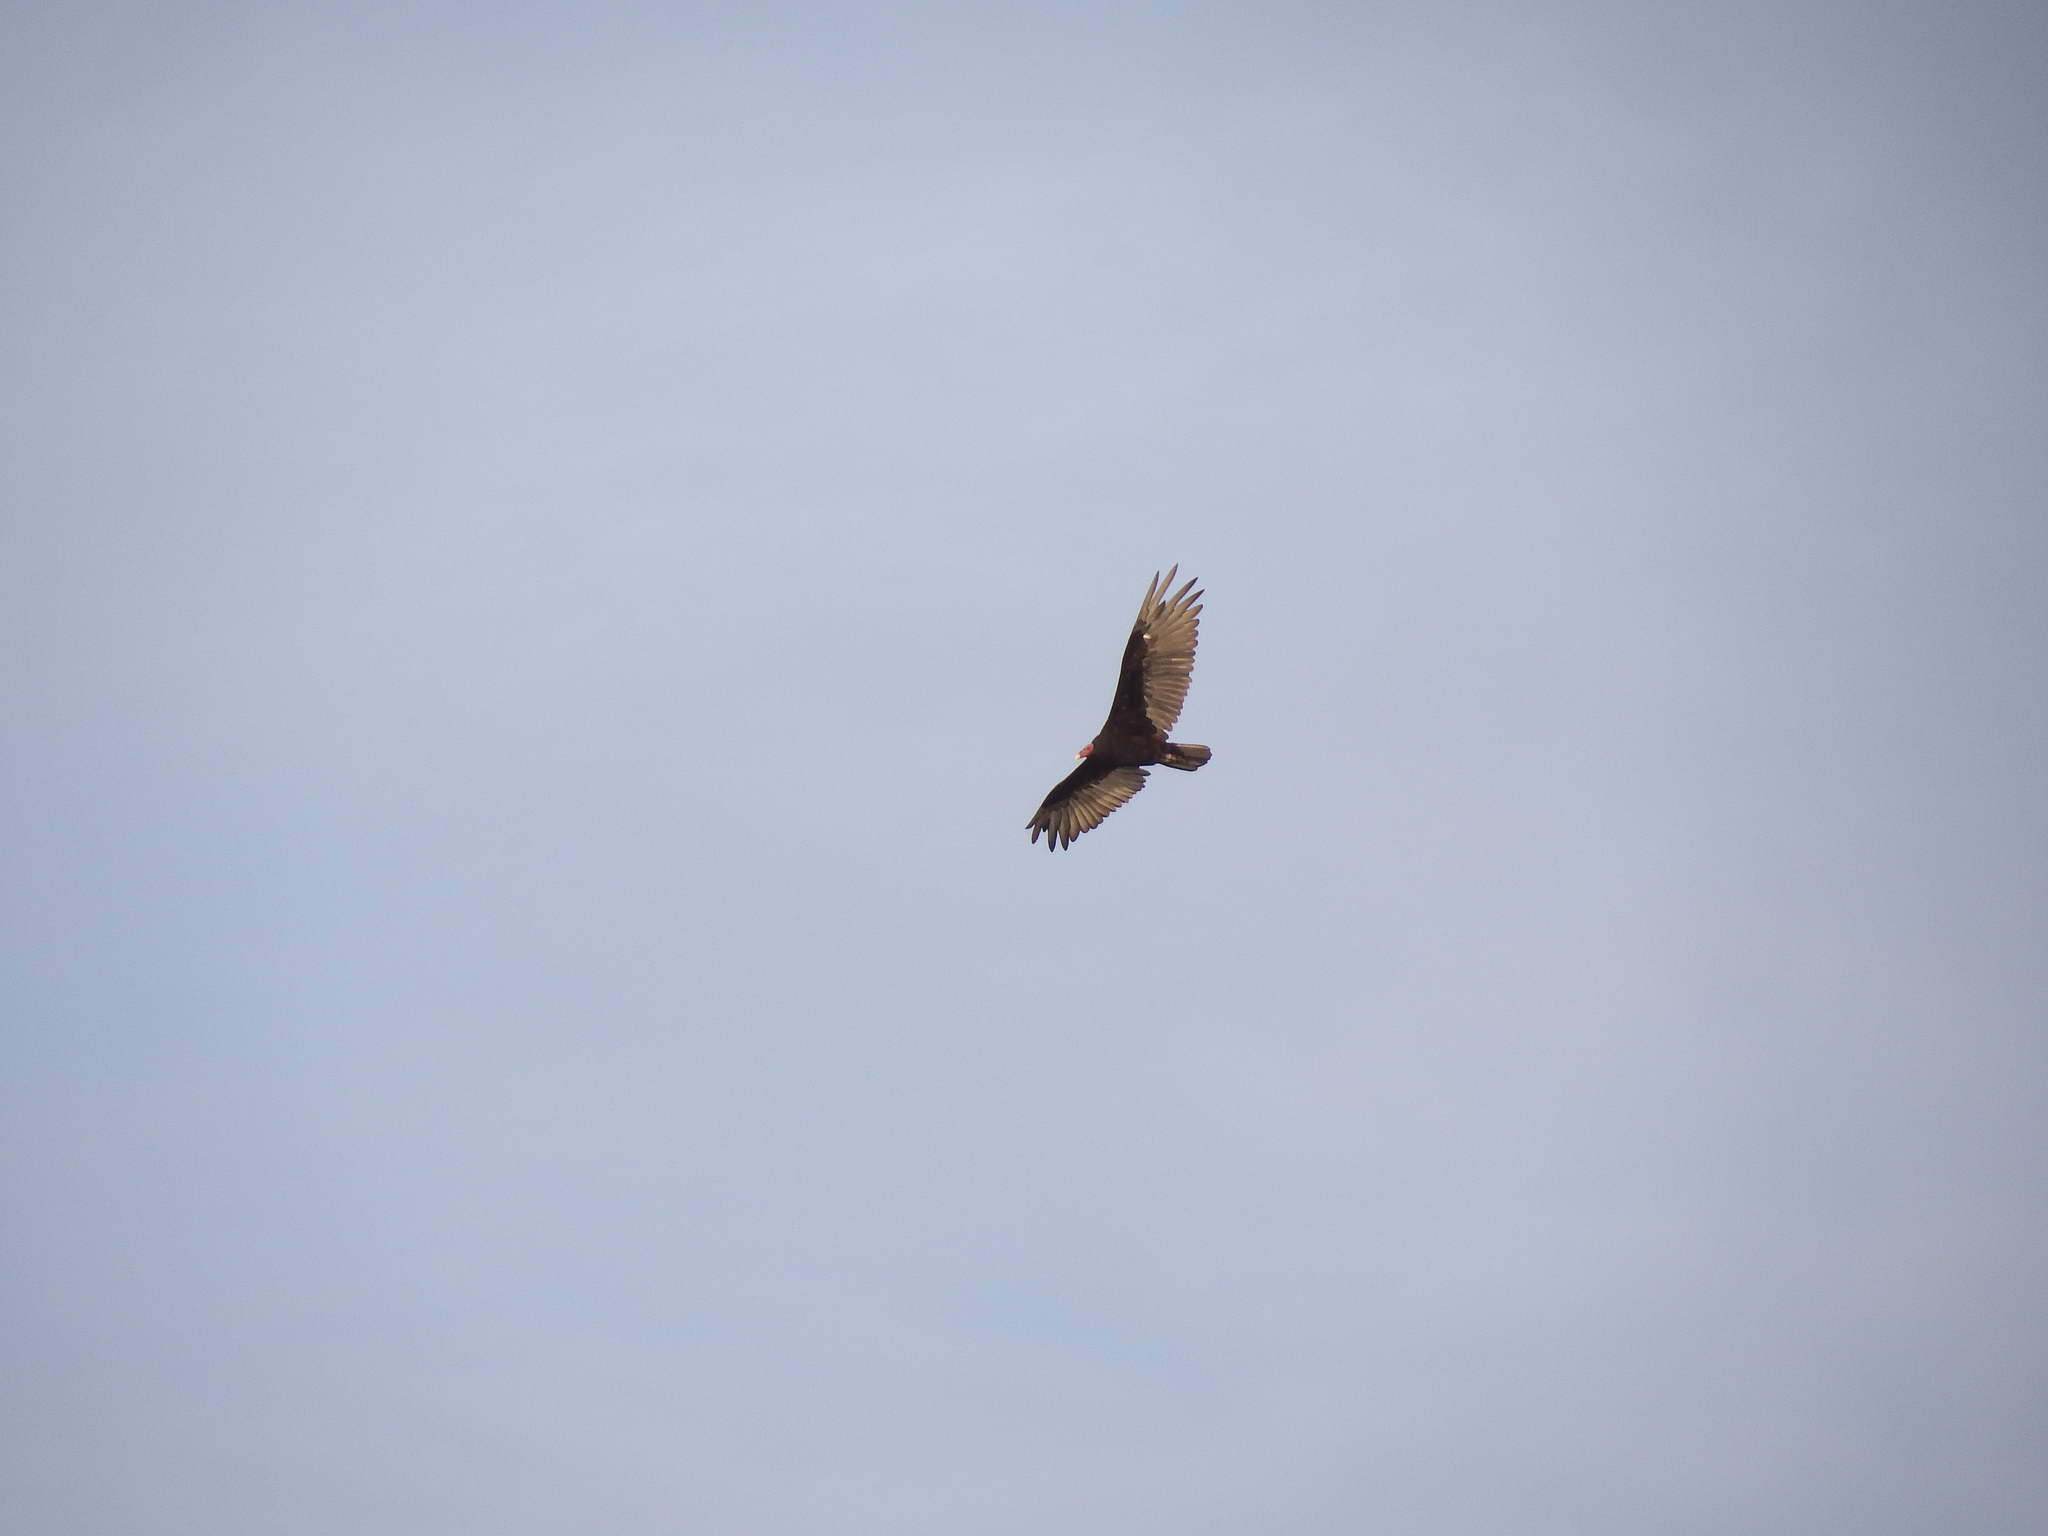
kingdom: Animalia
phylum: Chordata
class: Aves
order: Accipitriformes
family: Cathartidae
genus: Cathartes
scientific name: Cathartes aura
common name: Turkey vulture
